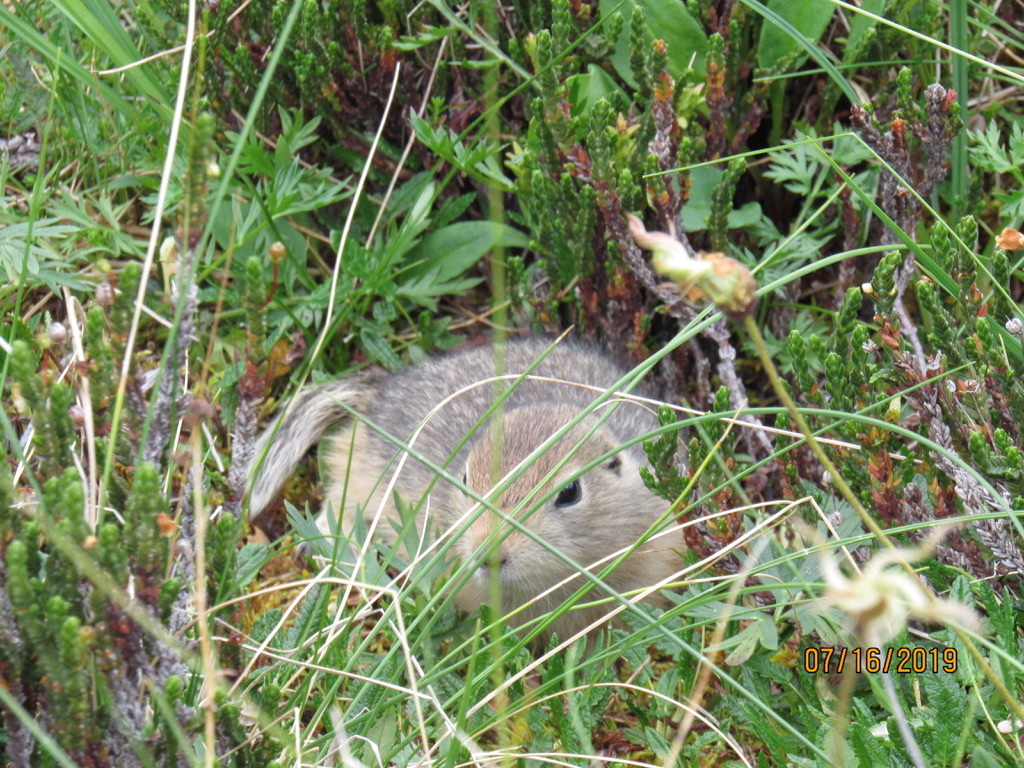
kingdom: Animalia
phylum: Chordata
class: Mammalia
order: Rodentia
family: Sciuridae
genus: Urocitellus
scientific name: Urocitellus parryii
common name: Arctic ground squirrel
